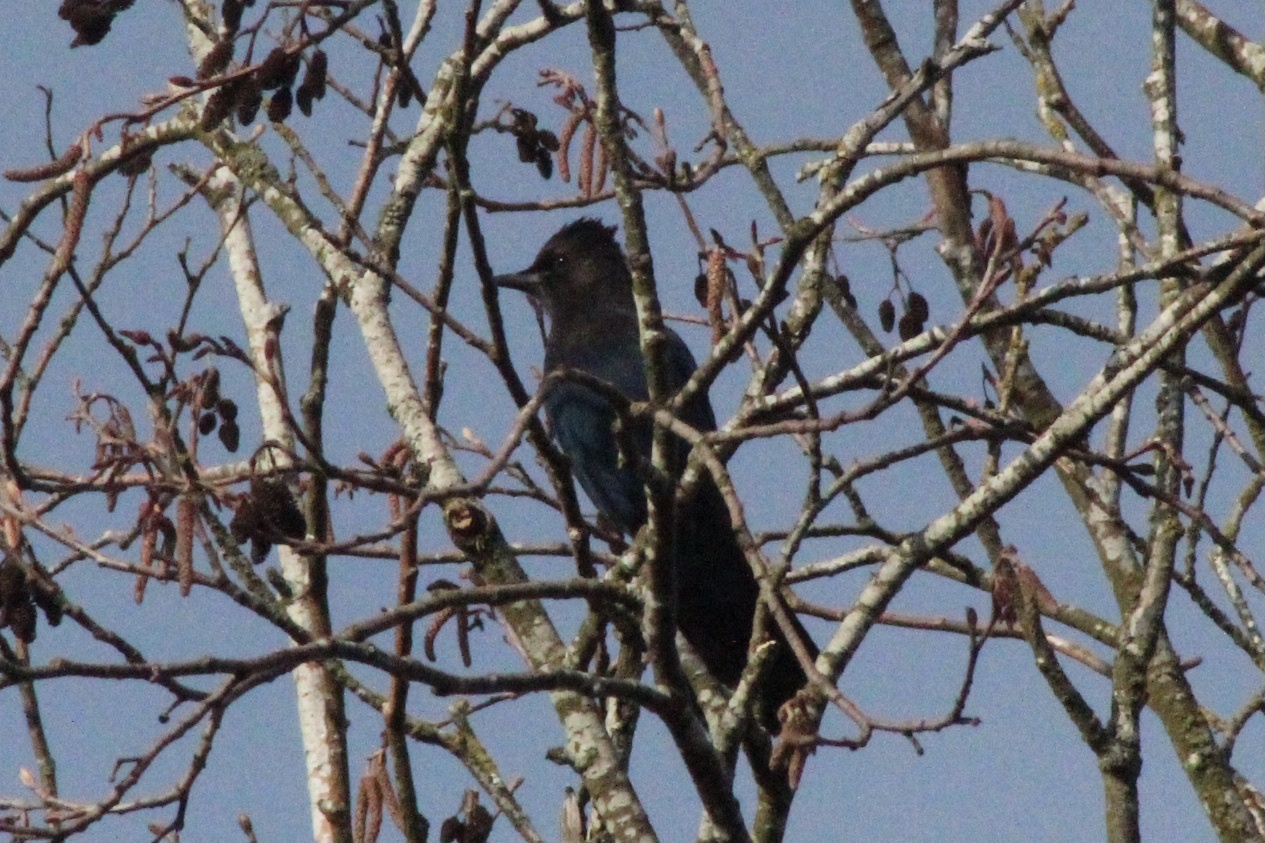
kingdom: Animalia
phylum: Chordata
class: Aves
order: Passeriformes
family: Corvidae
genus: Cyanocitta
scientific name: Cyanocitta stelleri
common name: Steller's jay
